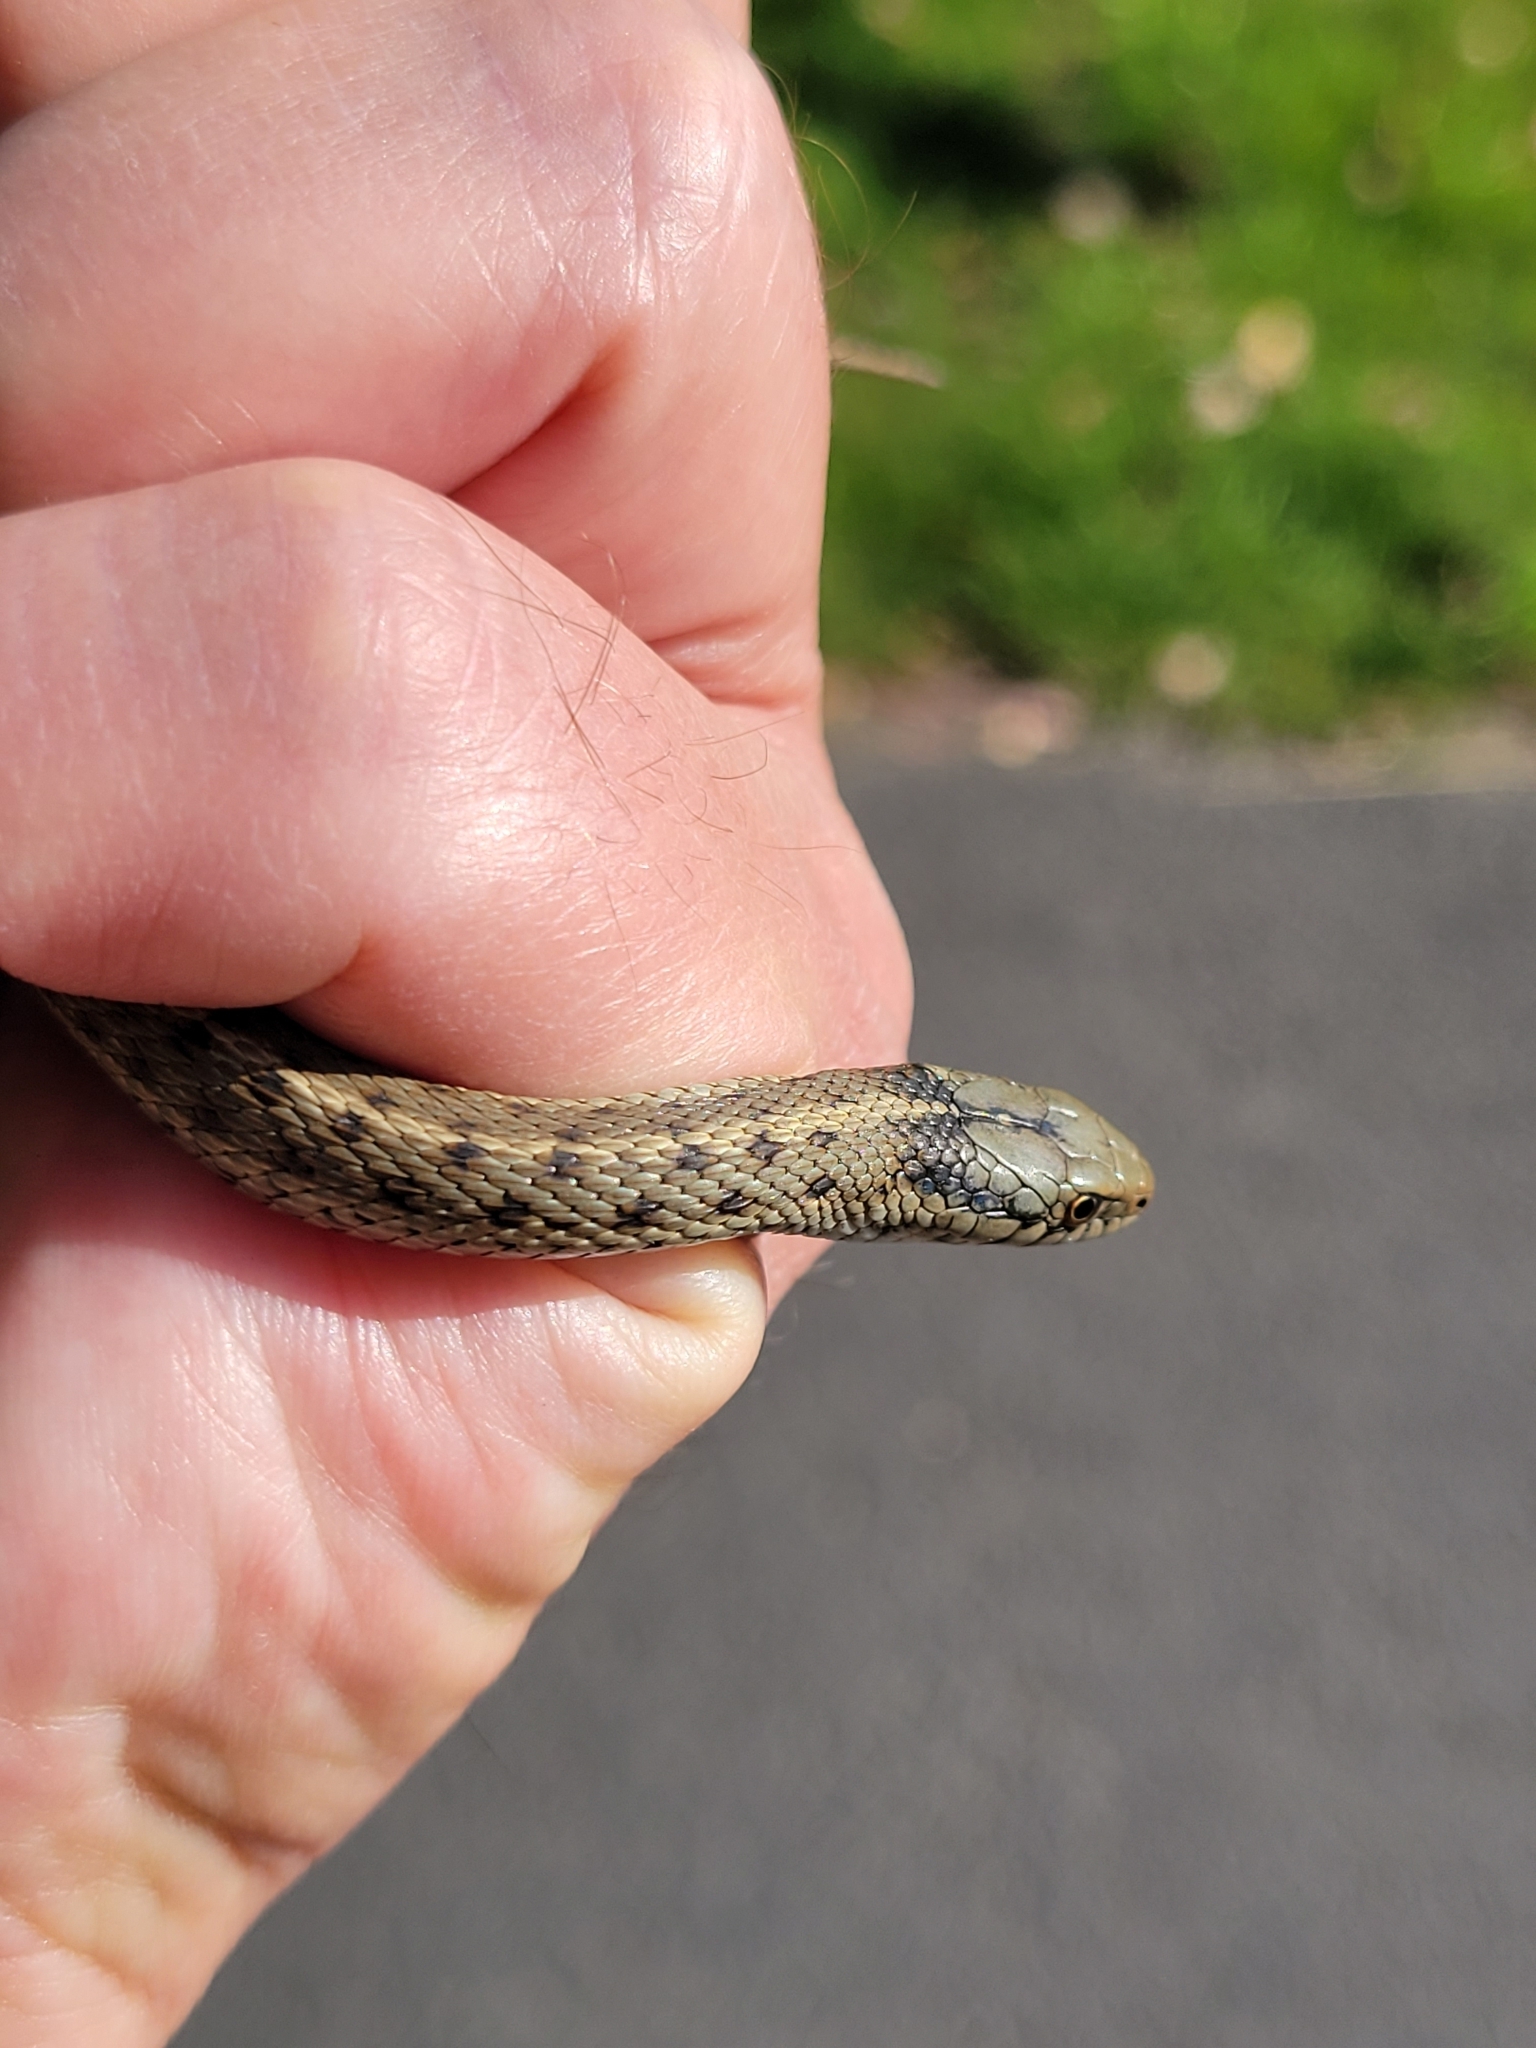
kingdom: Animalia
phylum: Chordata
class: Squamata
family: Colubridae
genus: Thamnophis
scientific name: Thamnophis elegans
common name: Western terrestrial garter snake
